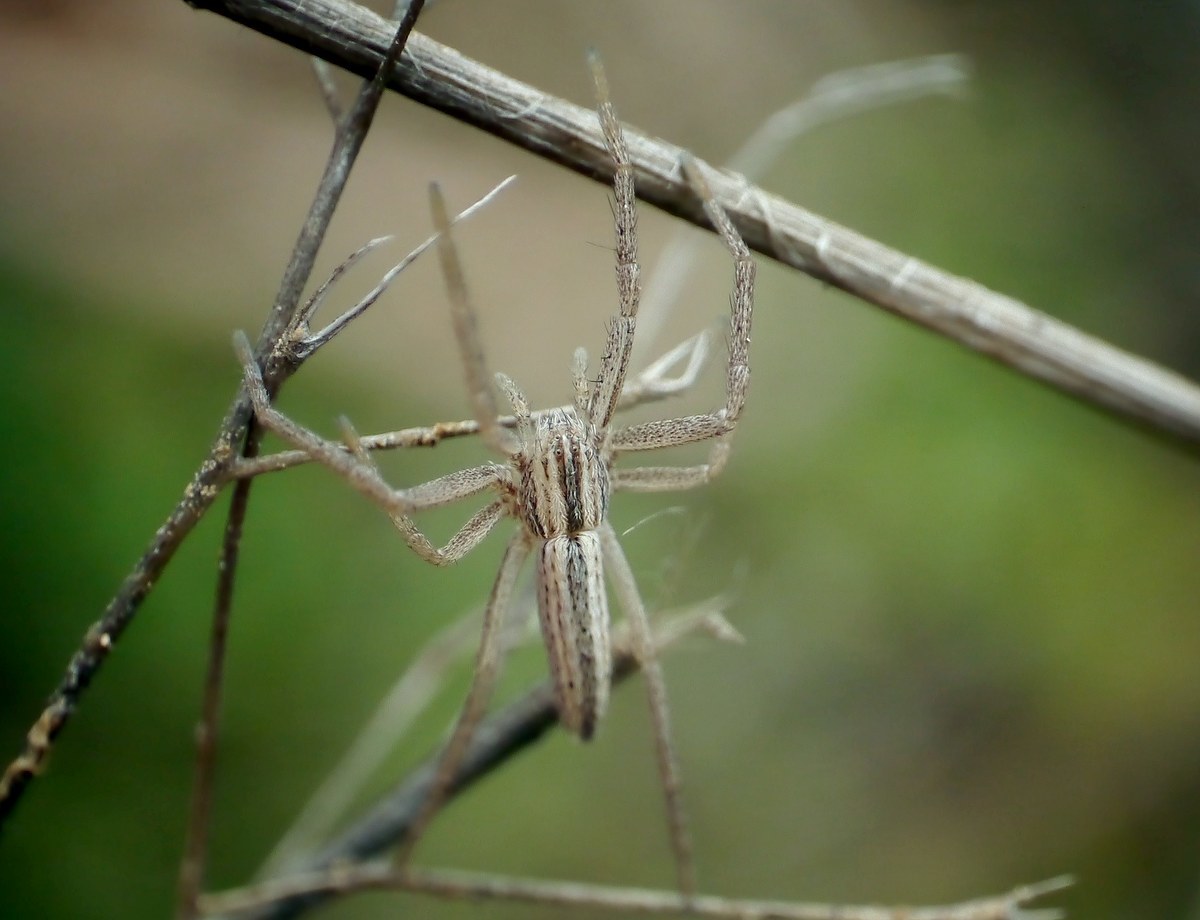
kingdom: Animalia
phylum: Arthropoda
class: Arachnida
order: Araneae
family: Philodromidae
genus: Tibellus
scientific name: Tibellus
